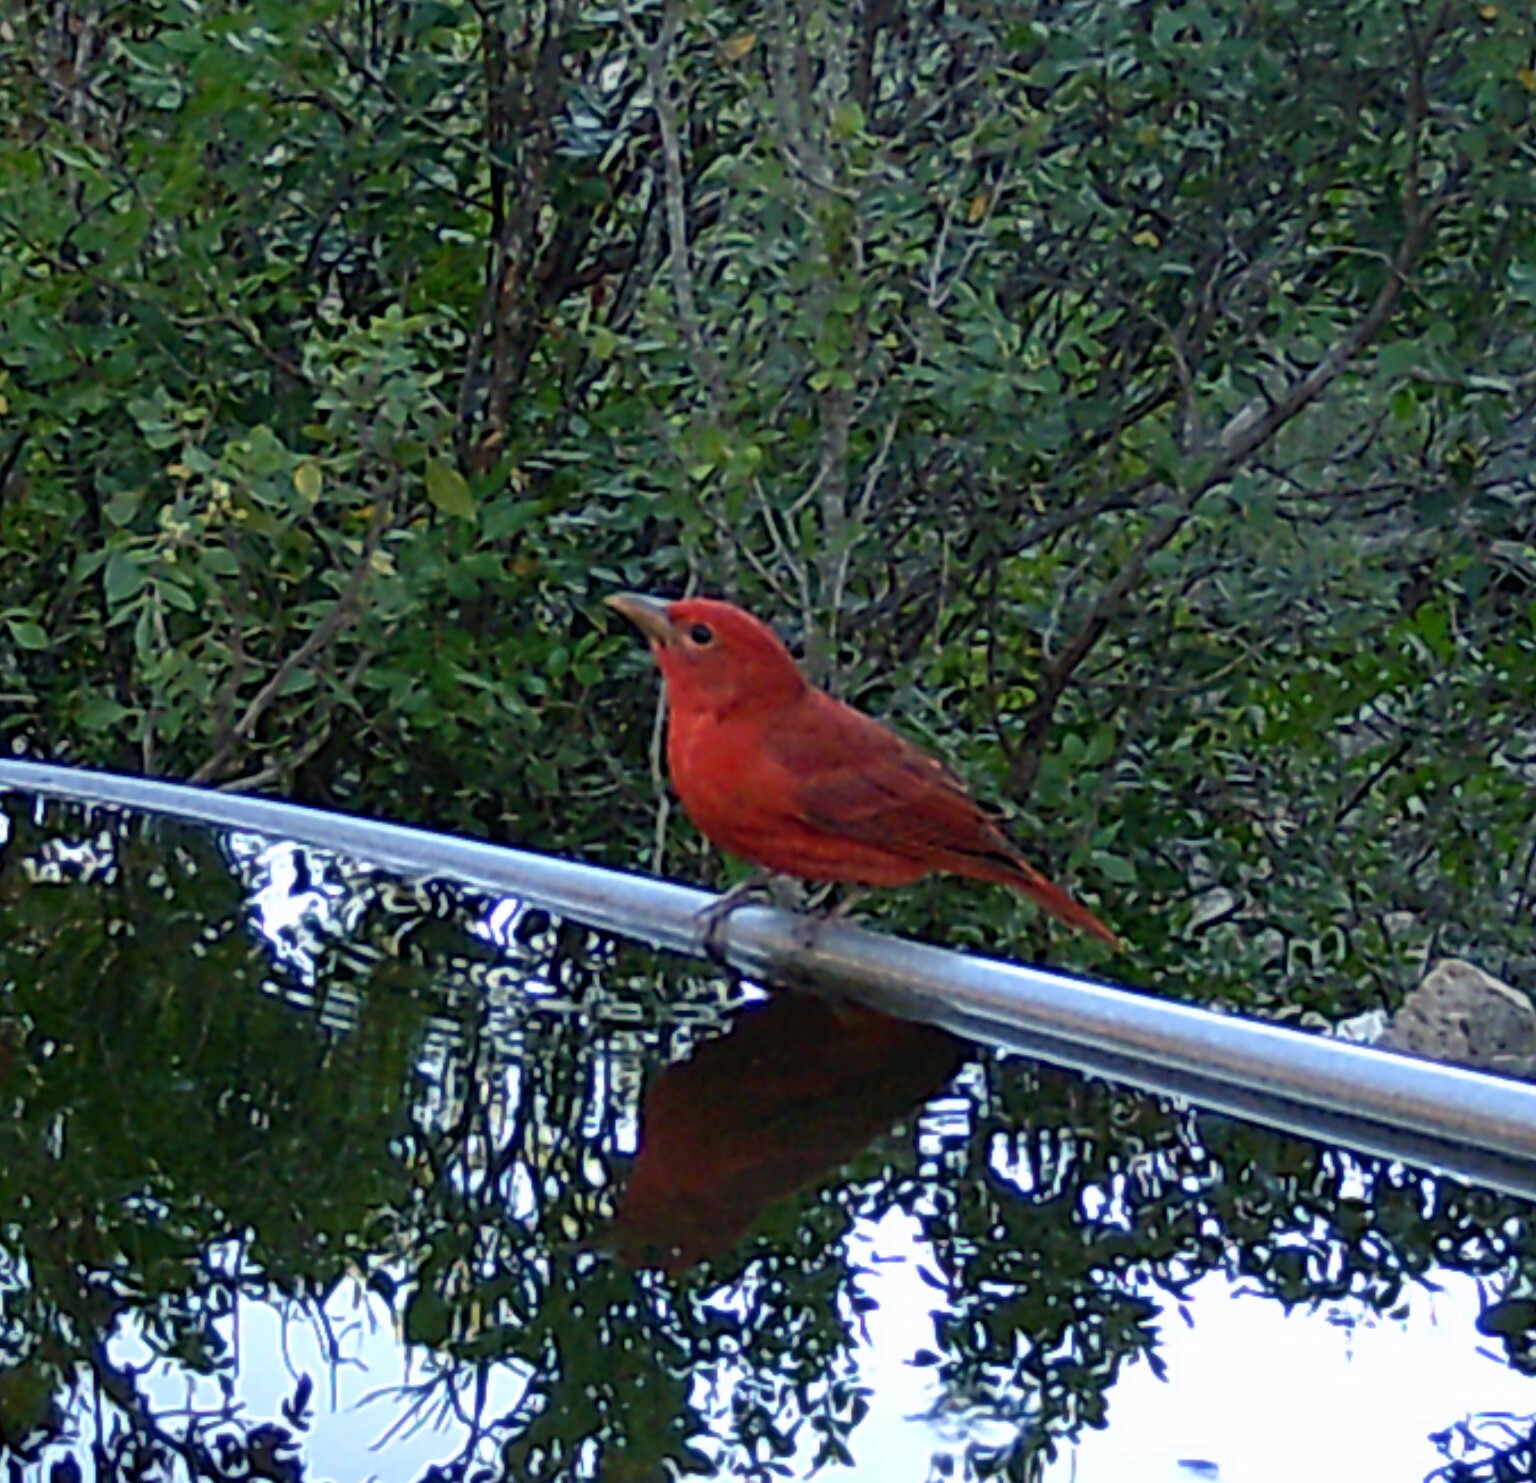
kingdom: Animalia
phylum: Chordata
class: Aves
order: Passeriformes
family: Cardinalidae
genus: Piranga
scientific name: Piranga rubra
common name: Summer tanager
